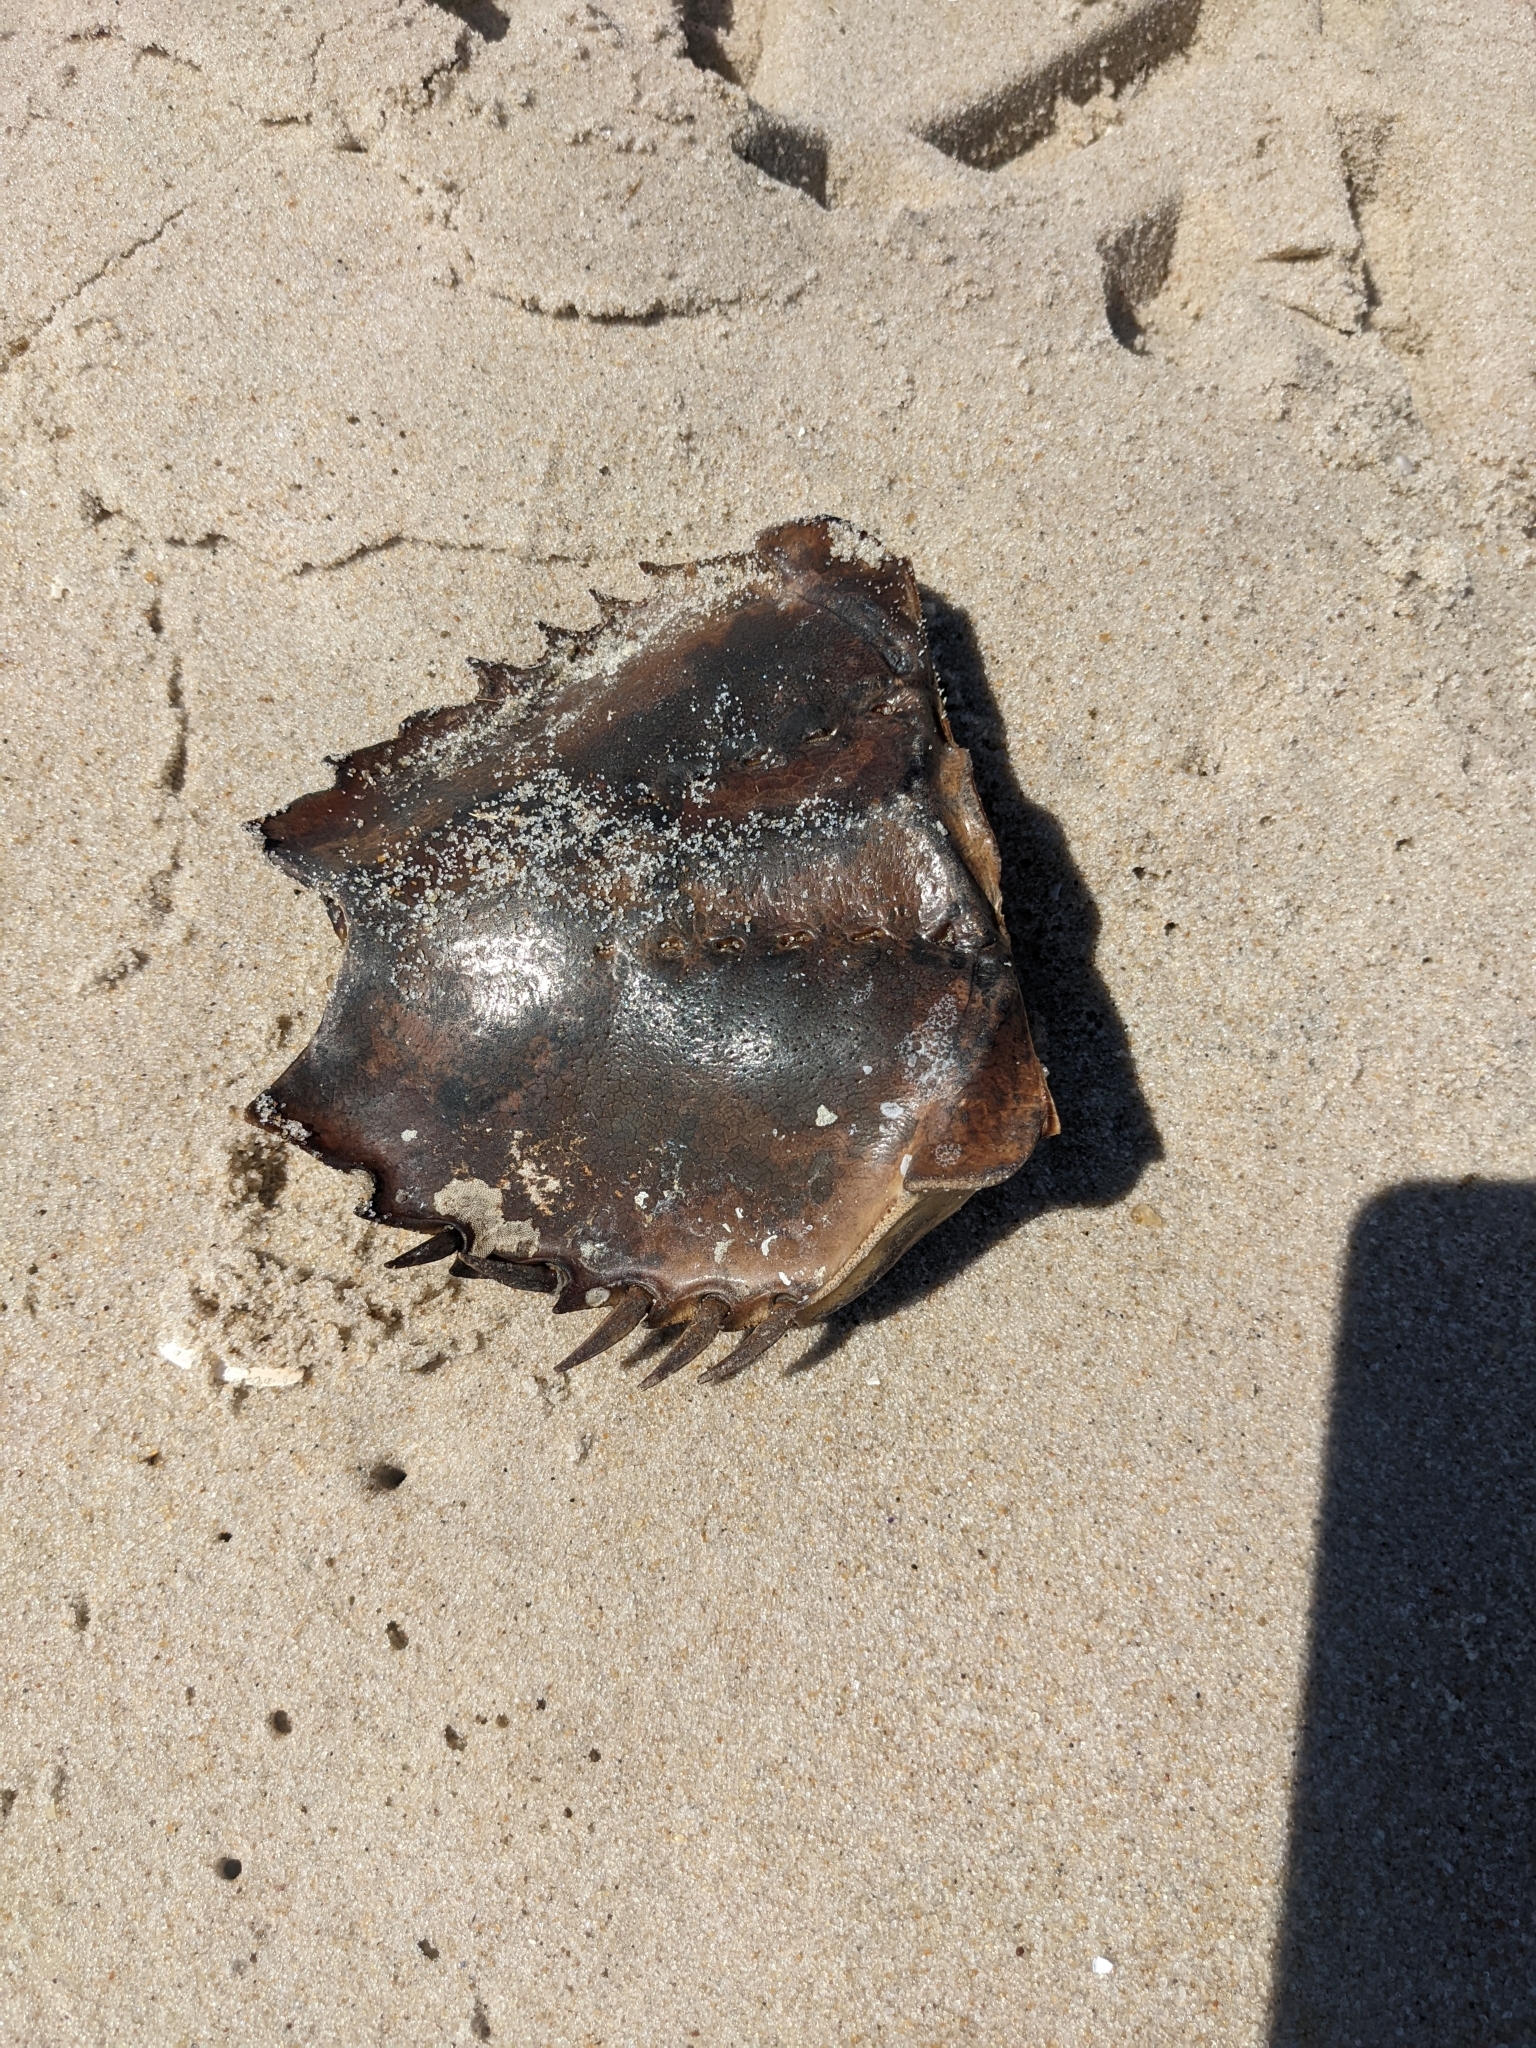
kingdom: Animalia
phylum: Arthropoda
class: Merostomata
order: Xiphosurida
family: Limulidae
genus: Limulus
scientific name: Limulus polyphemus
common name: Horseshoe crab
